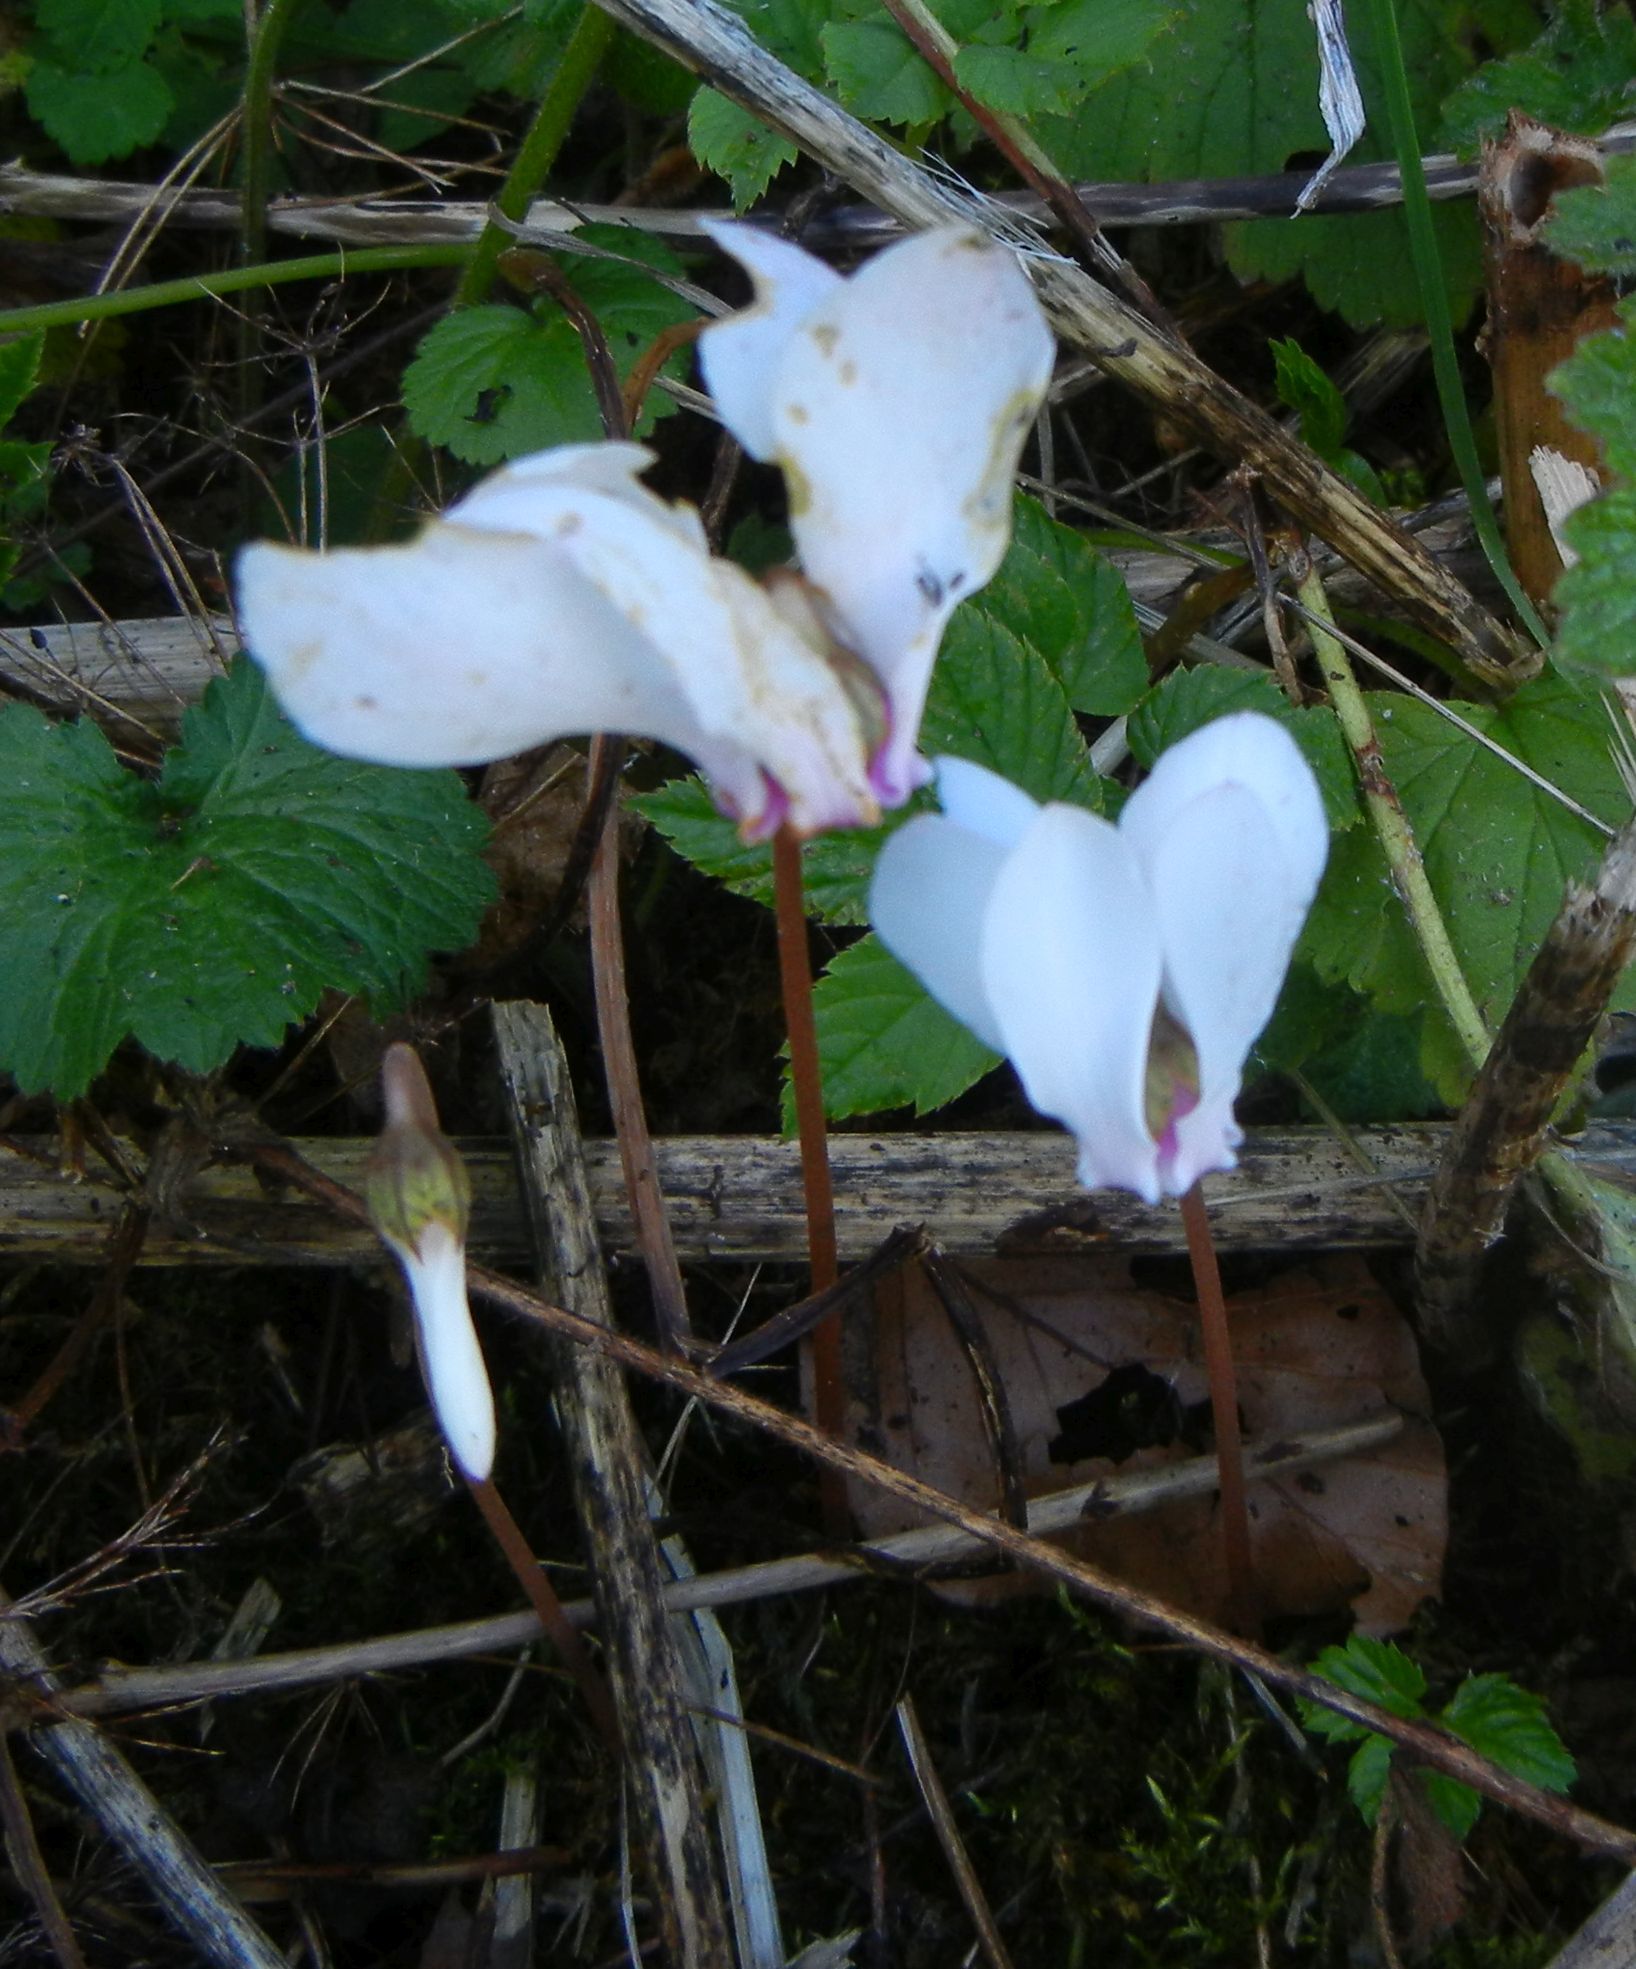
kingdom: Plantae
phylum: Tracheophyta
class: Magnoliopsida
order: Ericales
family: Primulaceae
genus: Cyclamen
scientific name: Cyclamen hederifolium
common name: Sowbread
